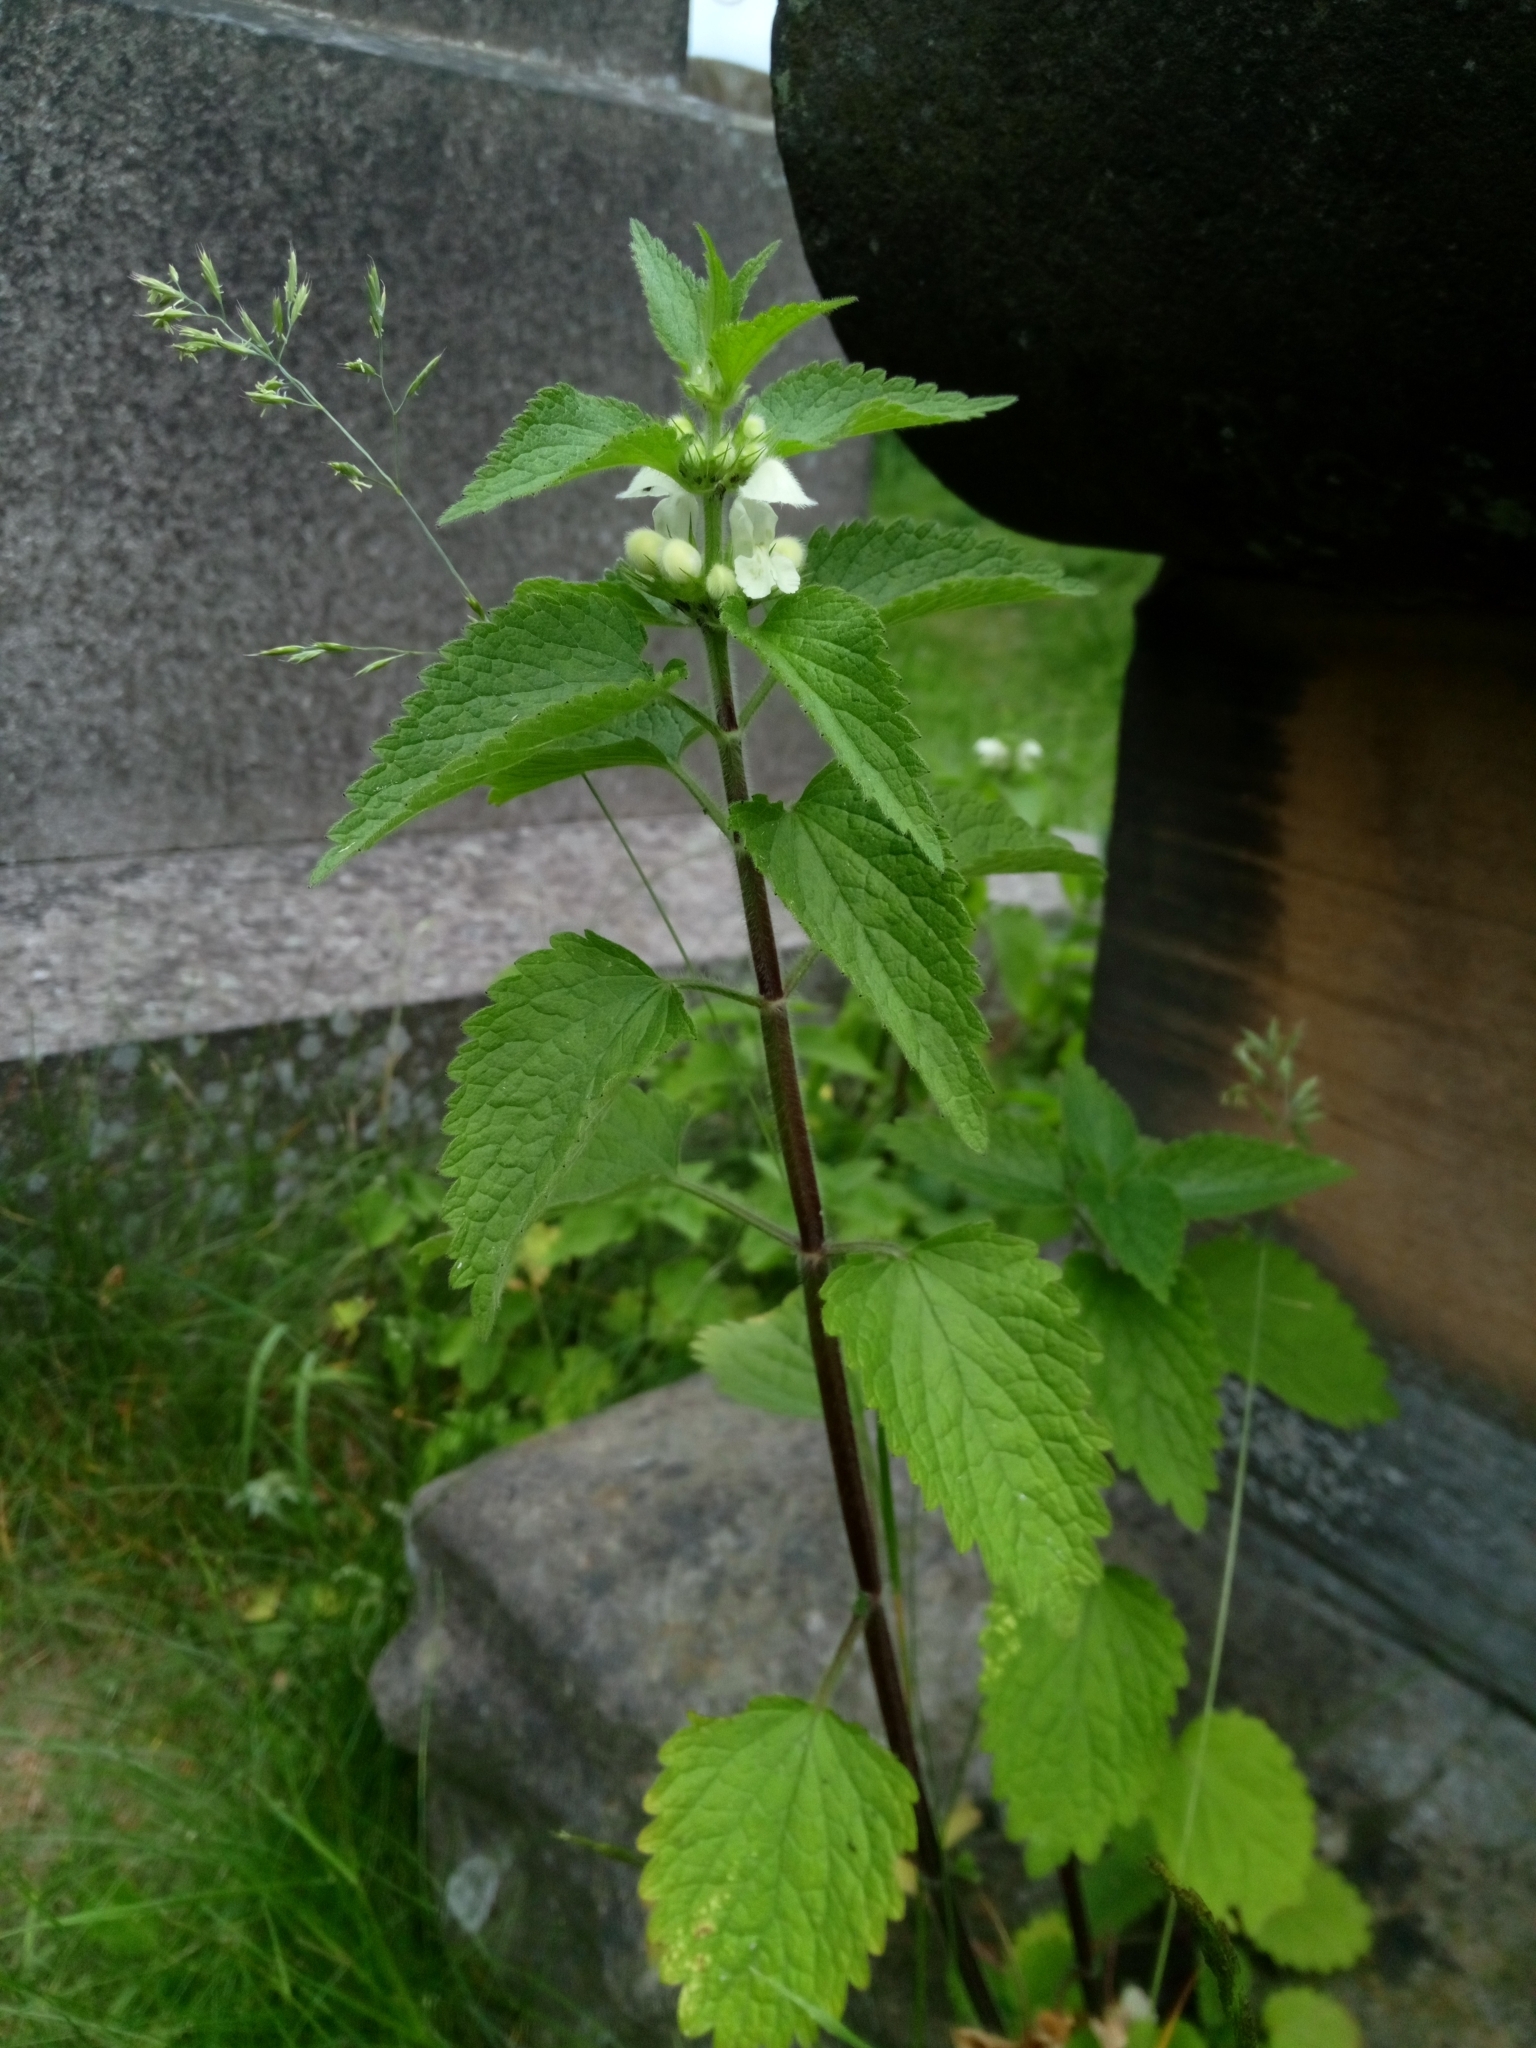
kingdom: Plantae
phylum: Tracheophyta
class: Magnoliopsida
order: Lamiales
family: Lamiaceae
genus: Lamium
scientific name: Lamium album
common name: White dead-nettle
